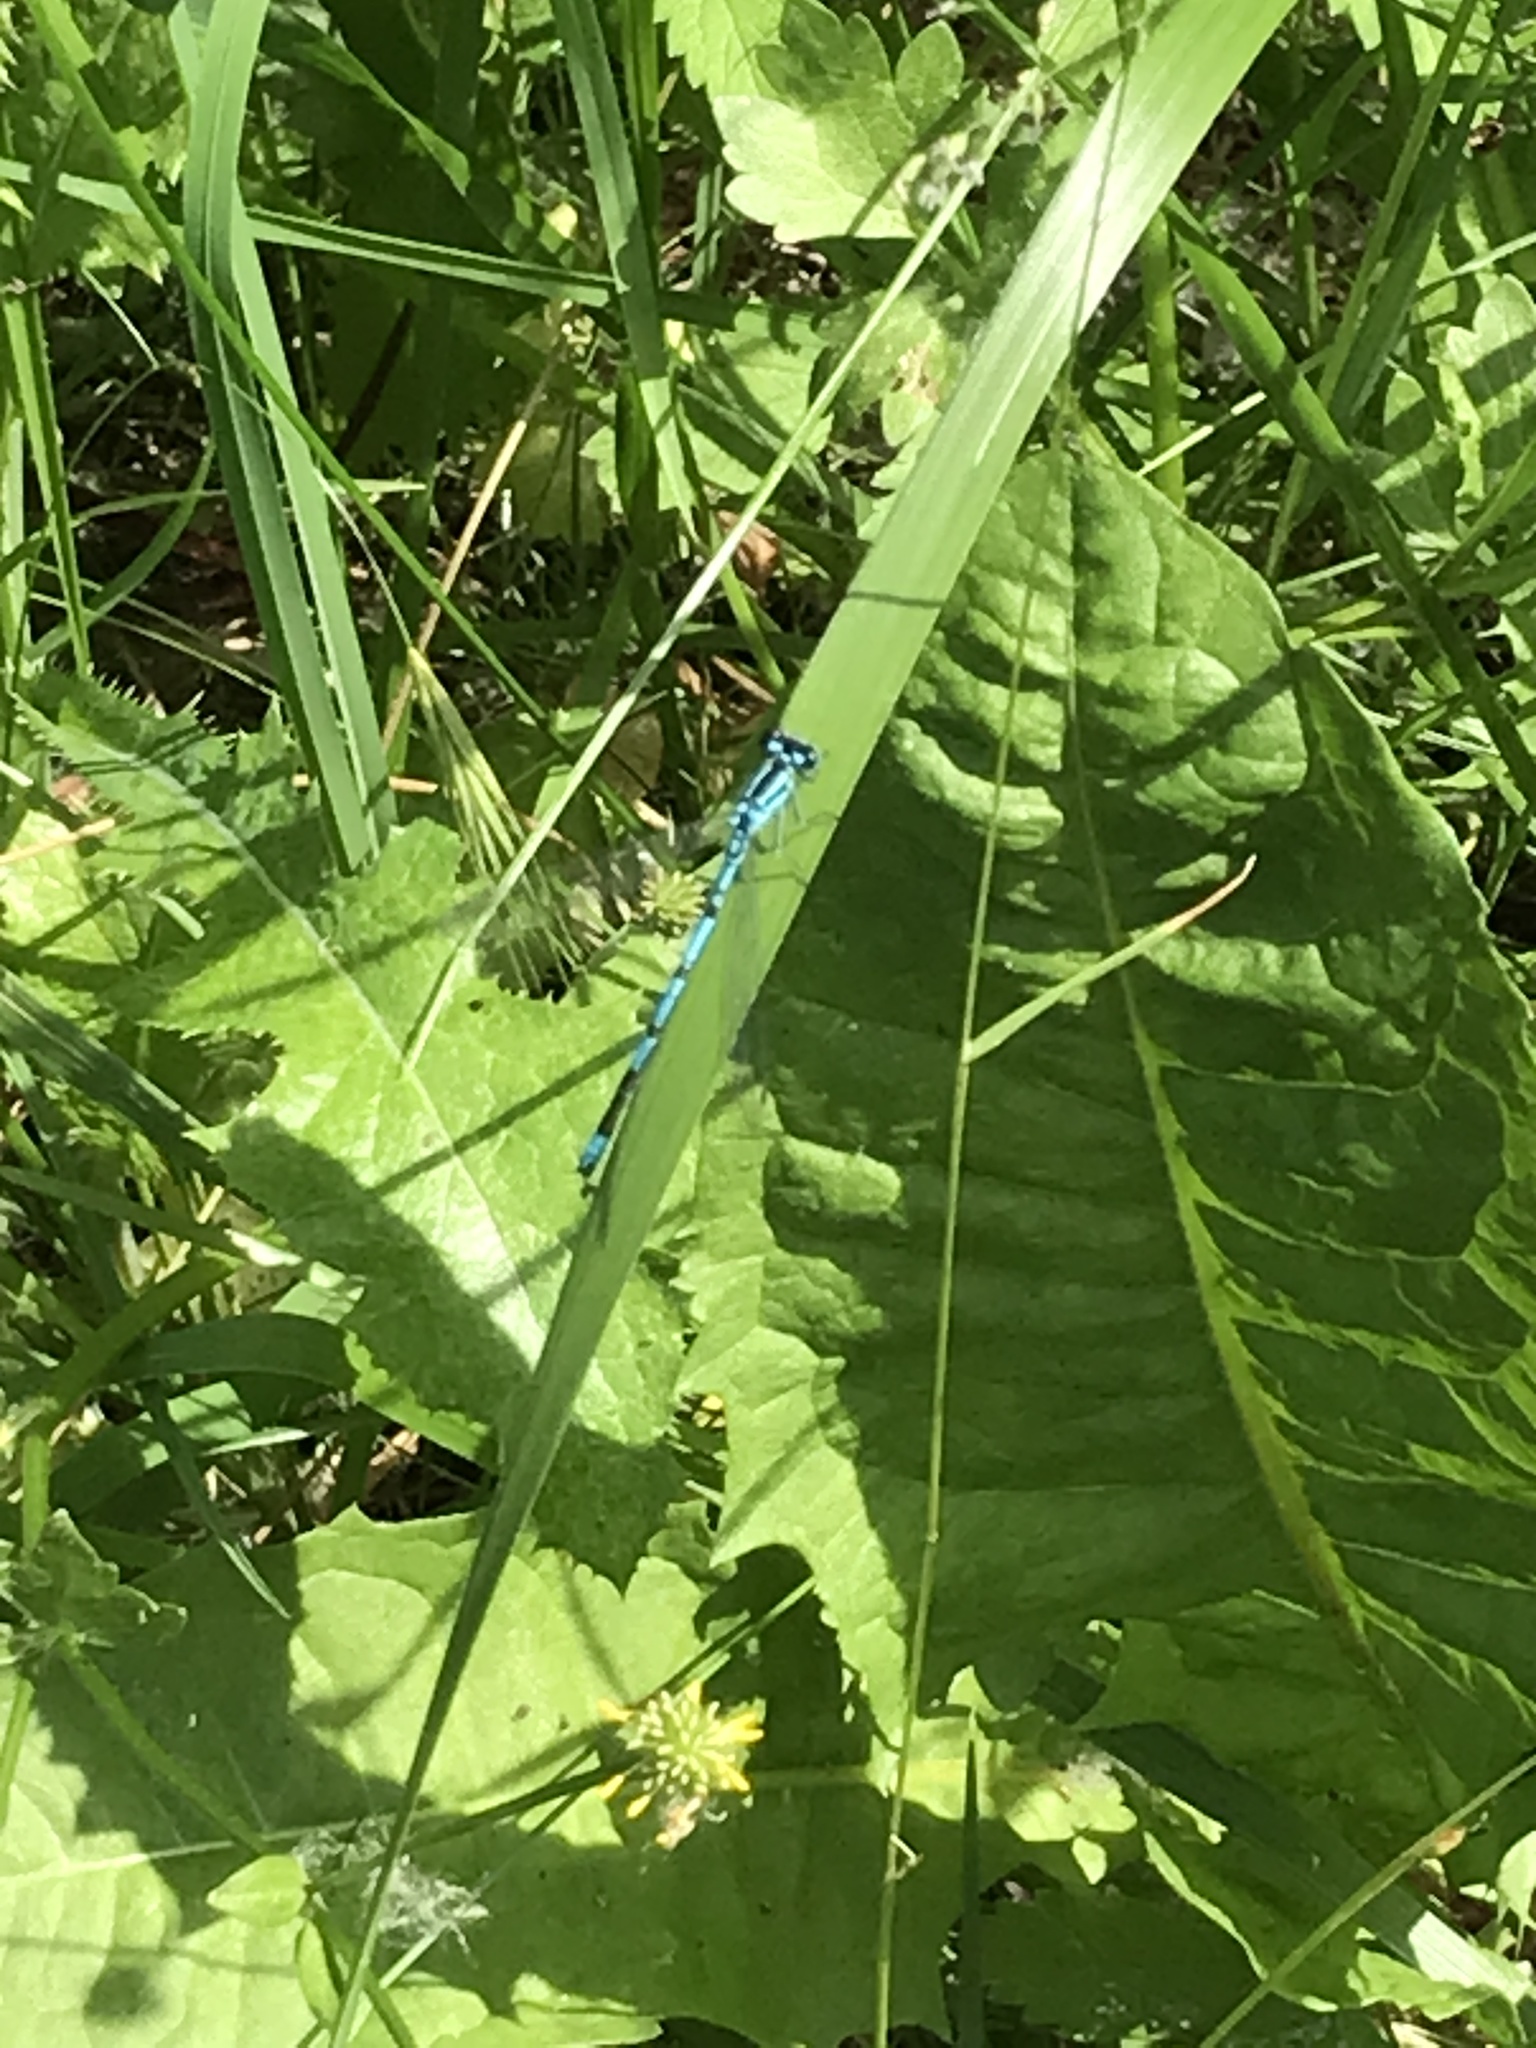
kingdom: Animalia
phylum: Arthropoda
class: Insecta
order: Odonata
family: Coenagrionidae
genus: Coenagrion
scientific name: Coenagrion puella
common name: Azure damselfly
